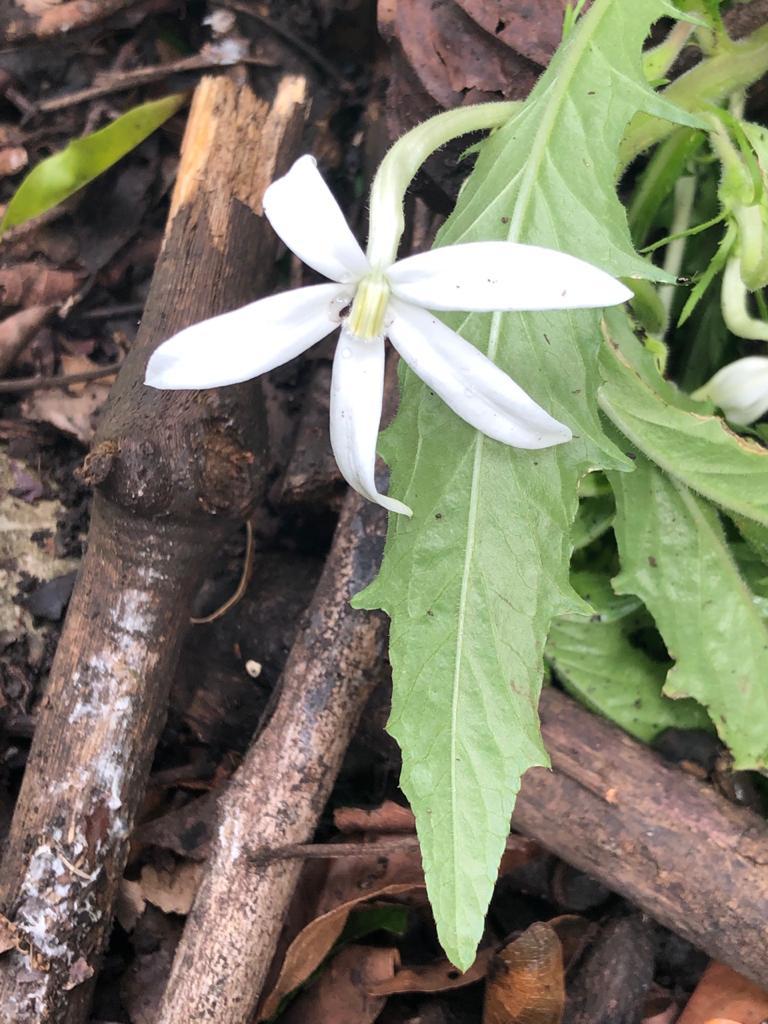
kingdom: Plantae
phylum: Tracheophyta
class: Magnoliopsida
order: Asterales
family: Campanulaceae
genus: Hippobroma
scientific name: Hippobroma longiflora
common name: Madamfate
